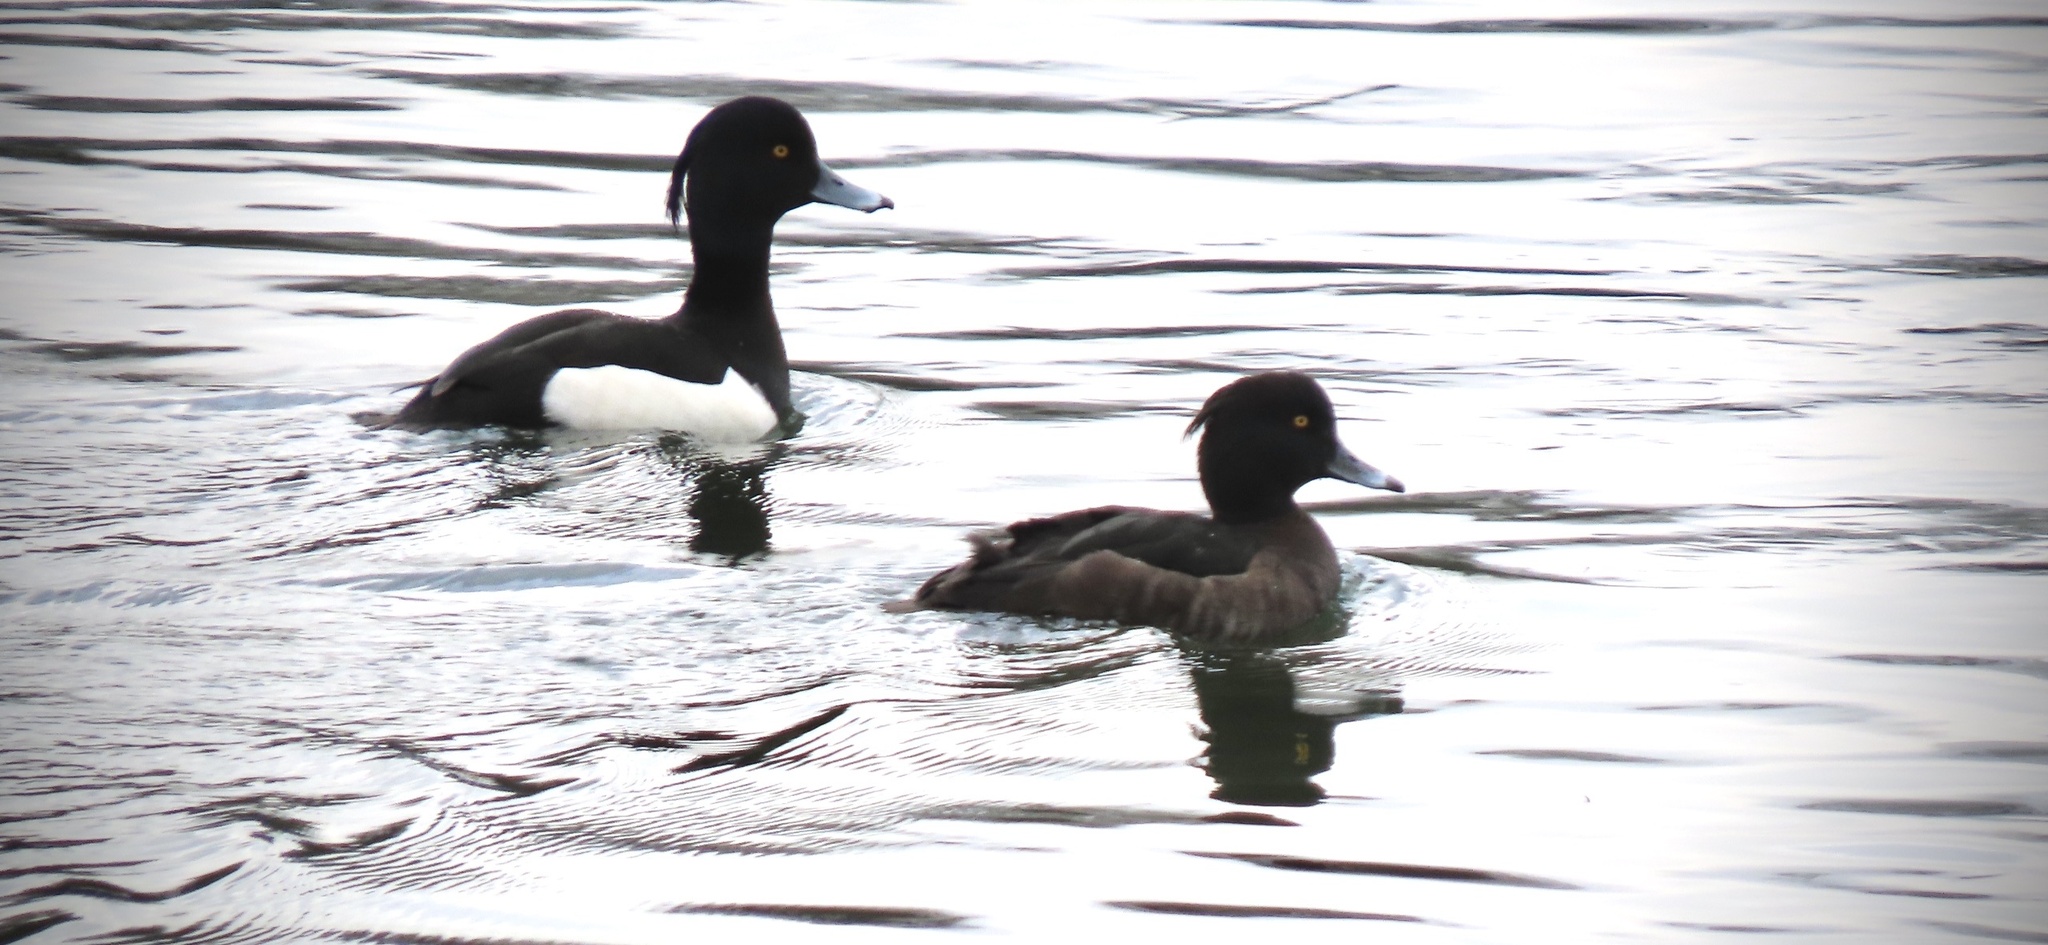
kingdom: Animalia
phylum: Chordata
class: Aves
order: Anseriformes
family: Anatidae
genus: Aythya
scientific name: Aythya fuligula
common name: Tufted duck
